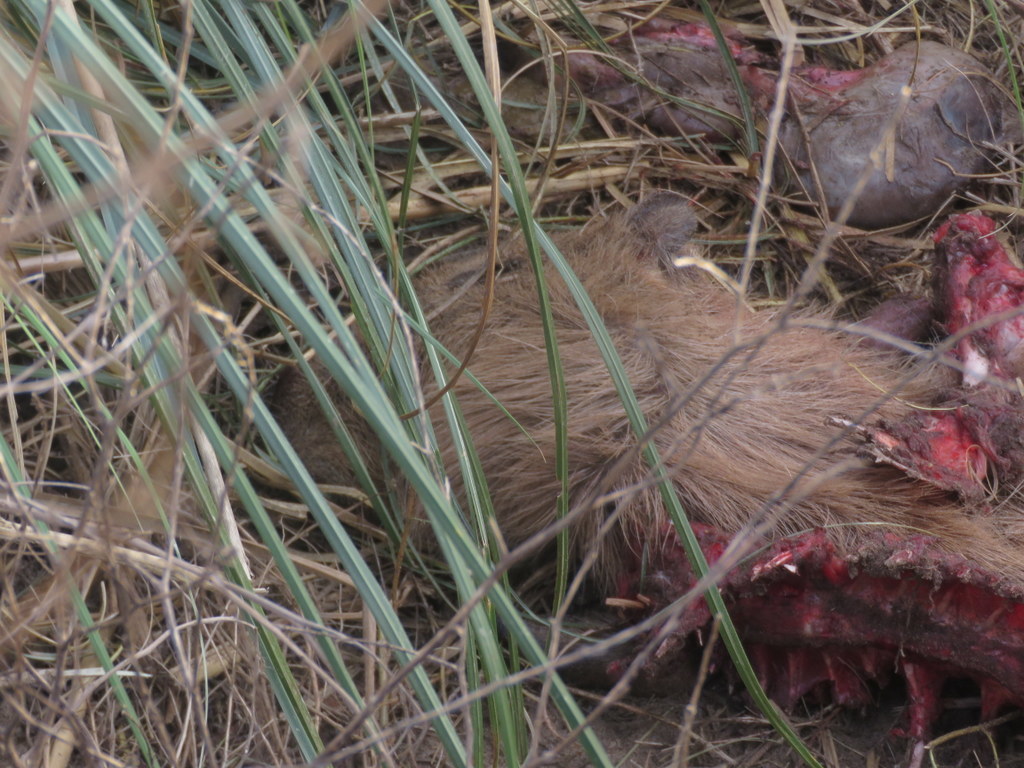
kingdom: Animalia
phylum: Chordata
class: Mammalia
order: Rodentia
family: Caviidae
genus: Hydrochoerus
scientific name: Hydrochoerus hydrochaeris
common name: Capybara
